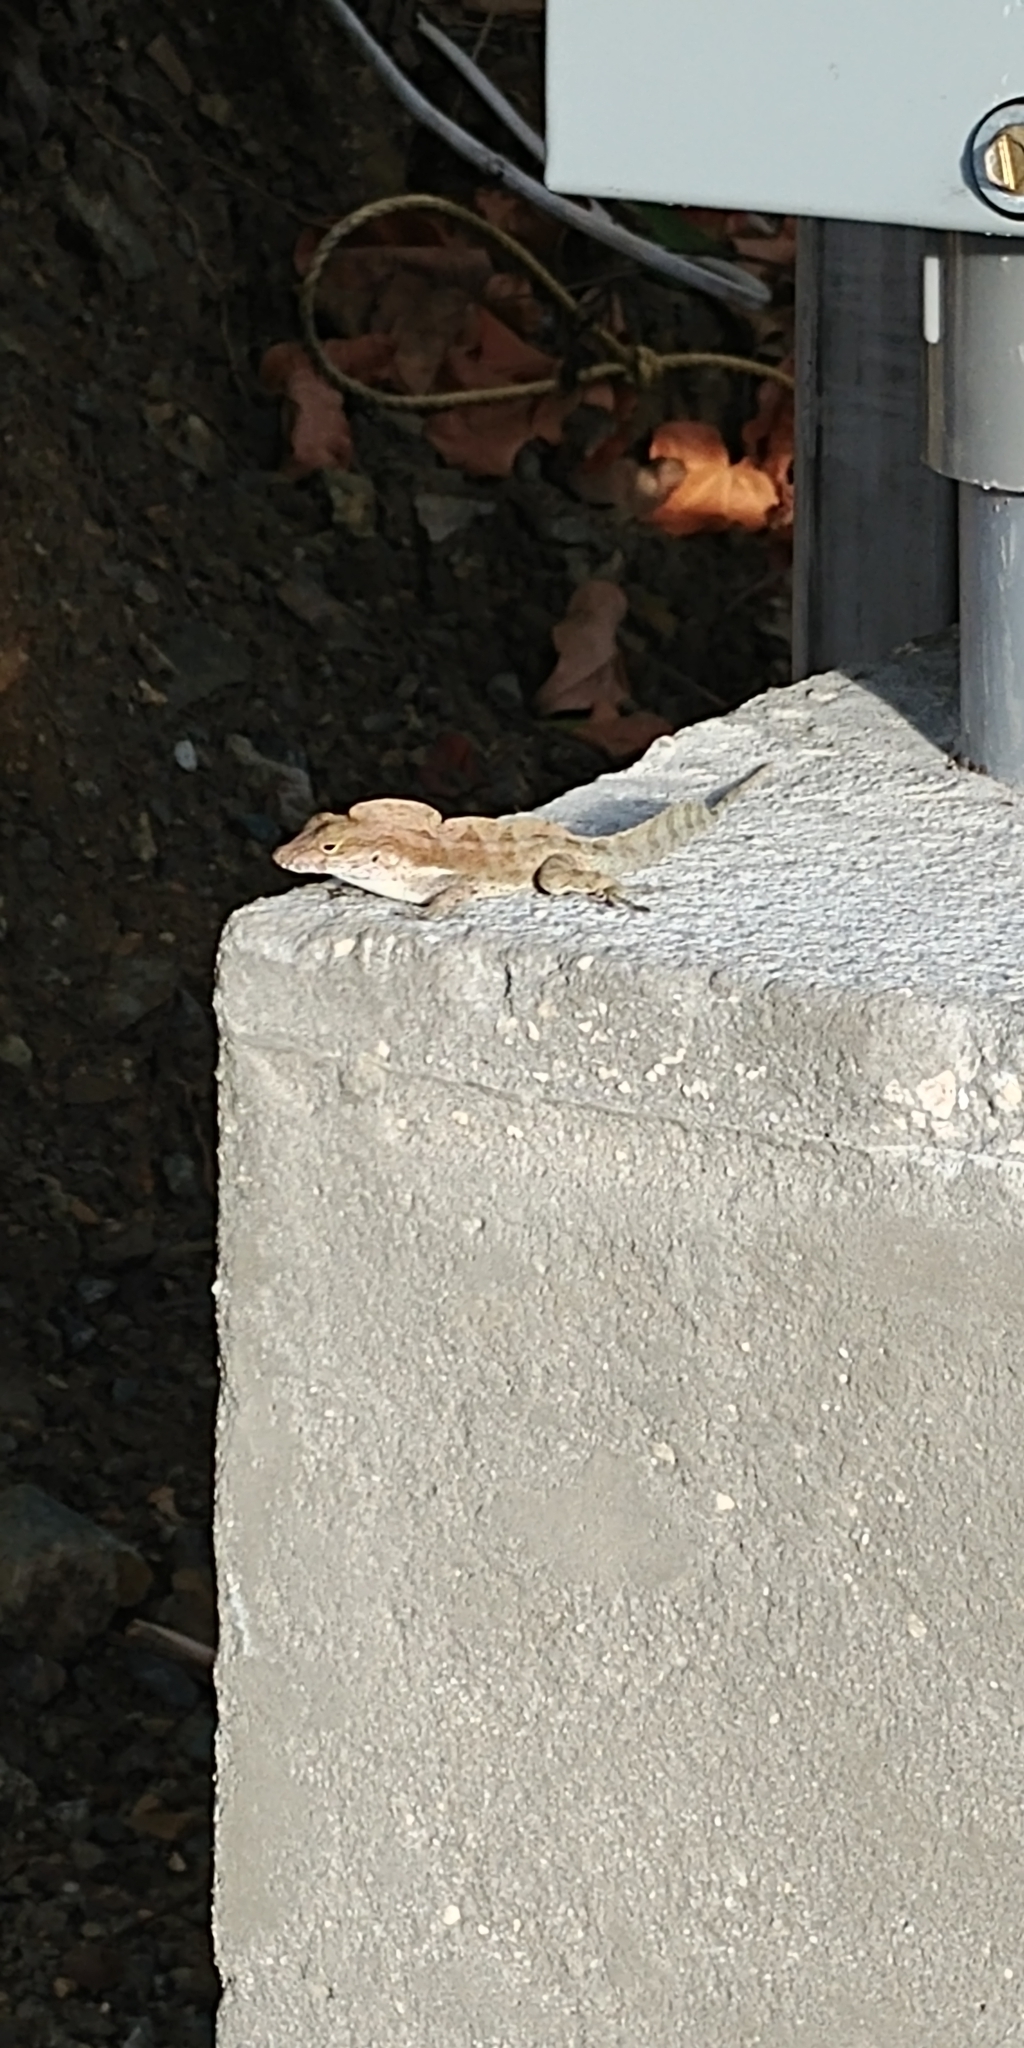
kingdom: Animalia
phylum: Chordata
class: Squamata
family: Dactyloidae
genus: Anolis
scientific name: Anolis cristatellus
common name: Crested anole
